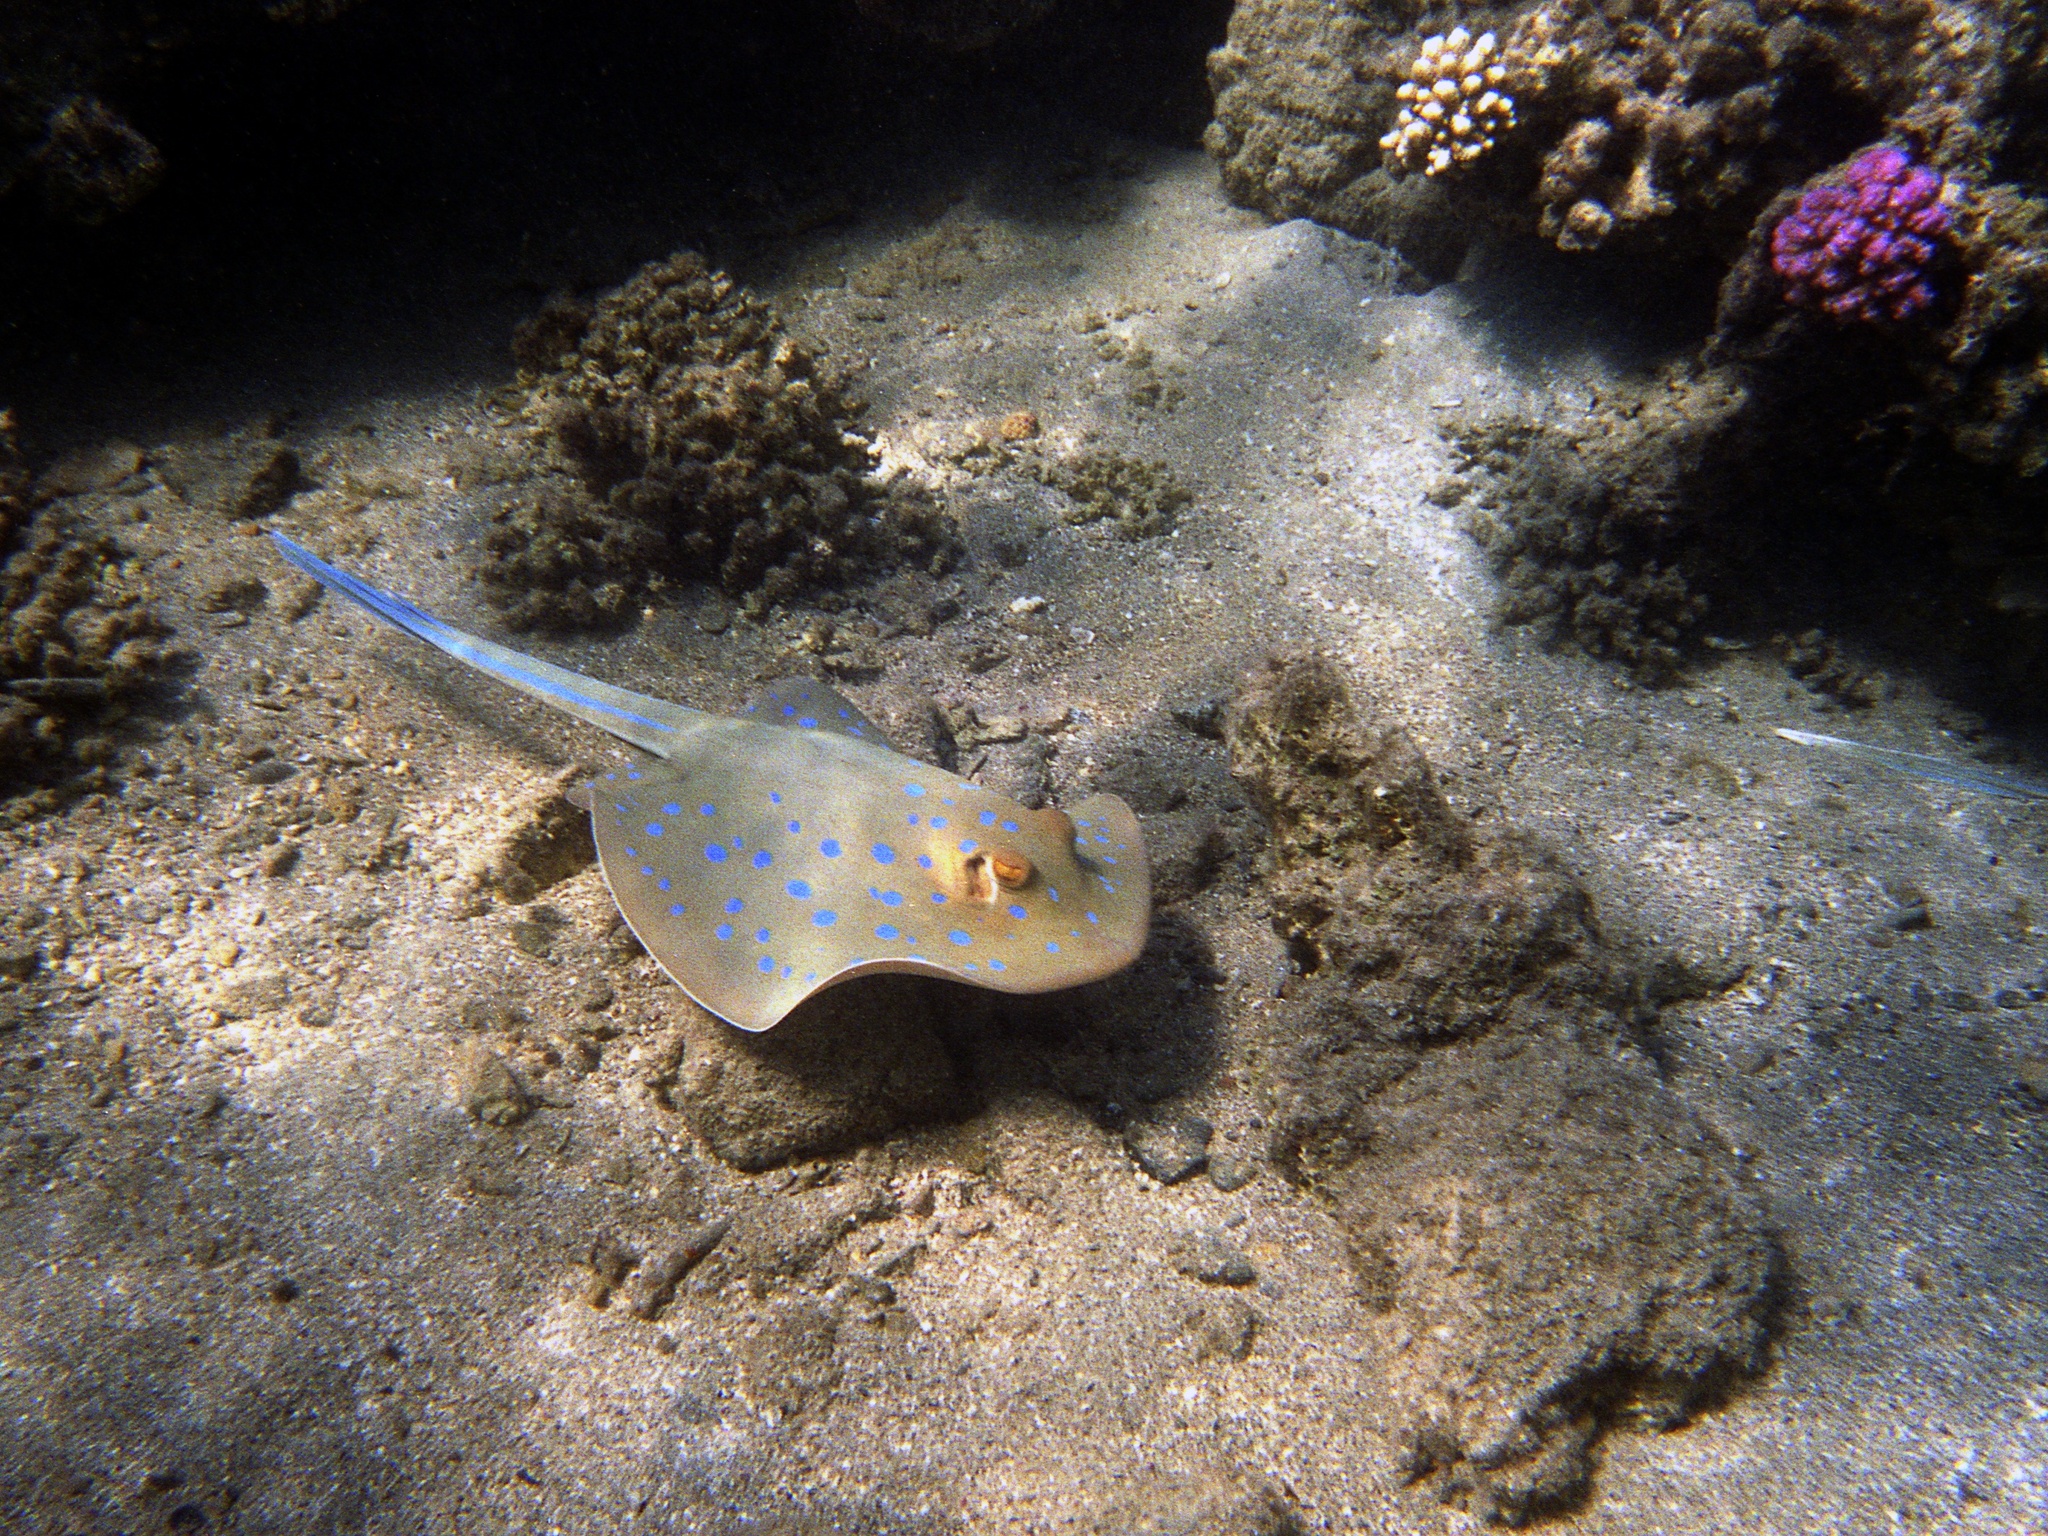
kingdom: Animalia
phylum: Chordata
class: Elasmobranchii
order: Myliobatiformes
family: Dasyatidae
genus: Taeniura
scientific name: Taeniura lymma
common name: Bluespotted ribbontail ray
